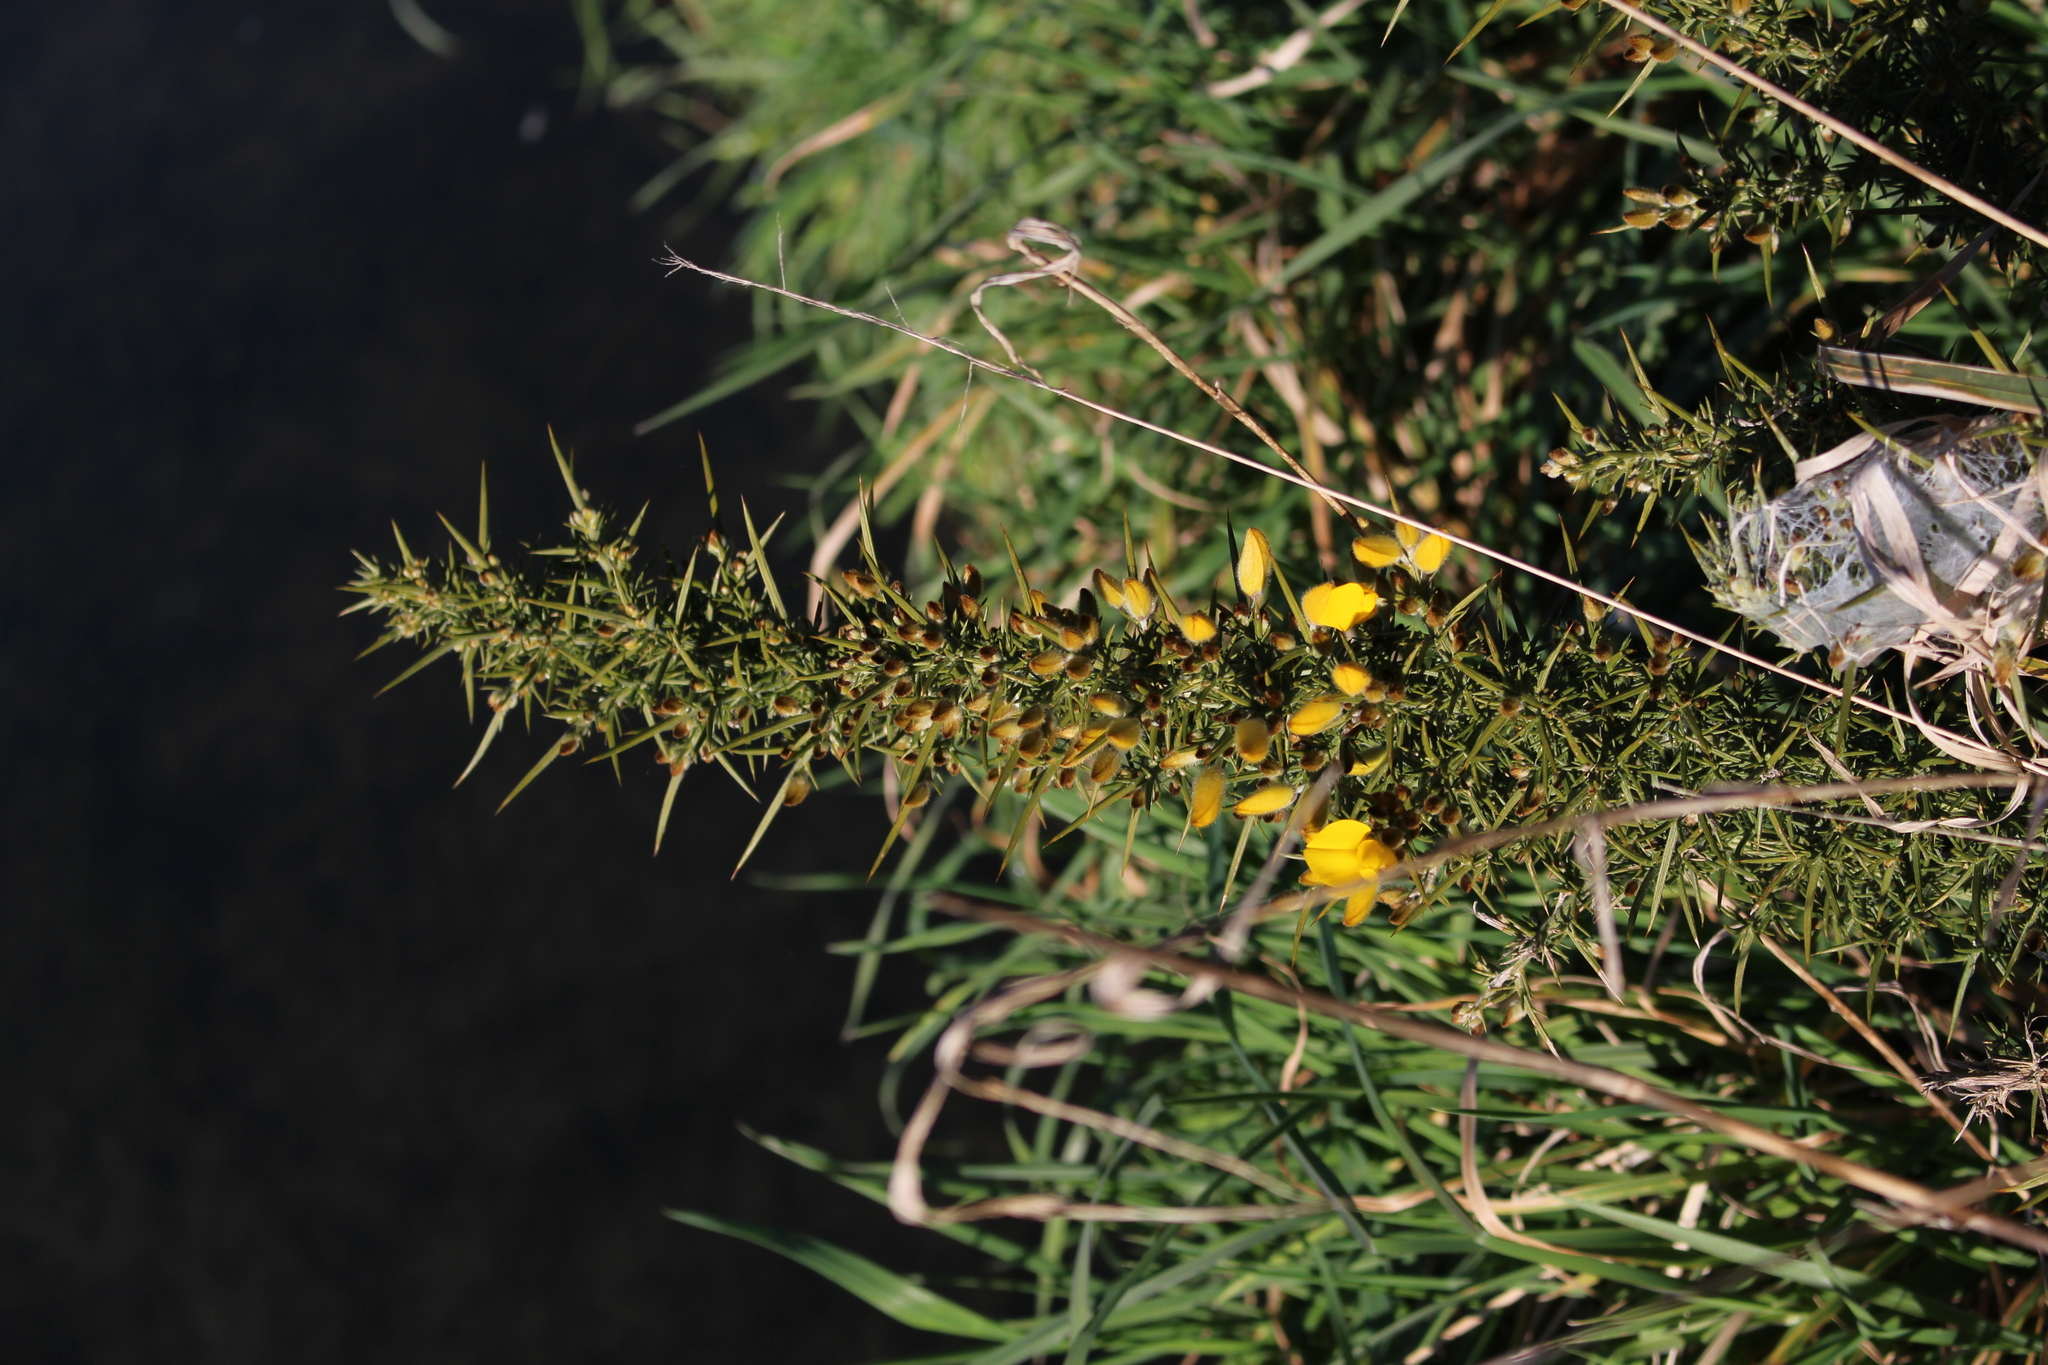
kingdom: Plantae
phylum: Tracheophyta
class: Magnoliopsida
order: Fabales
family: Fabaceae
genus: Ulex
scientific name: Ulex europaeus
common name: Common gorse
